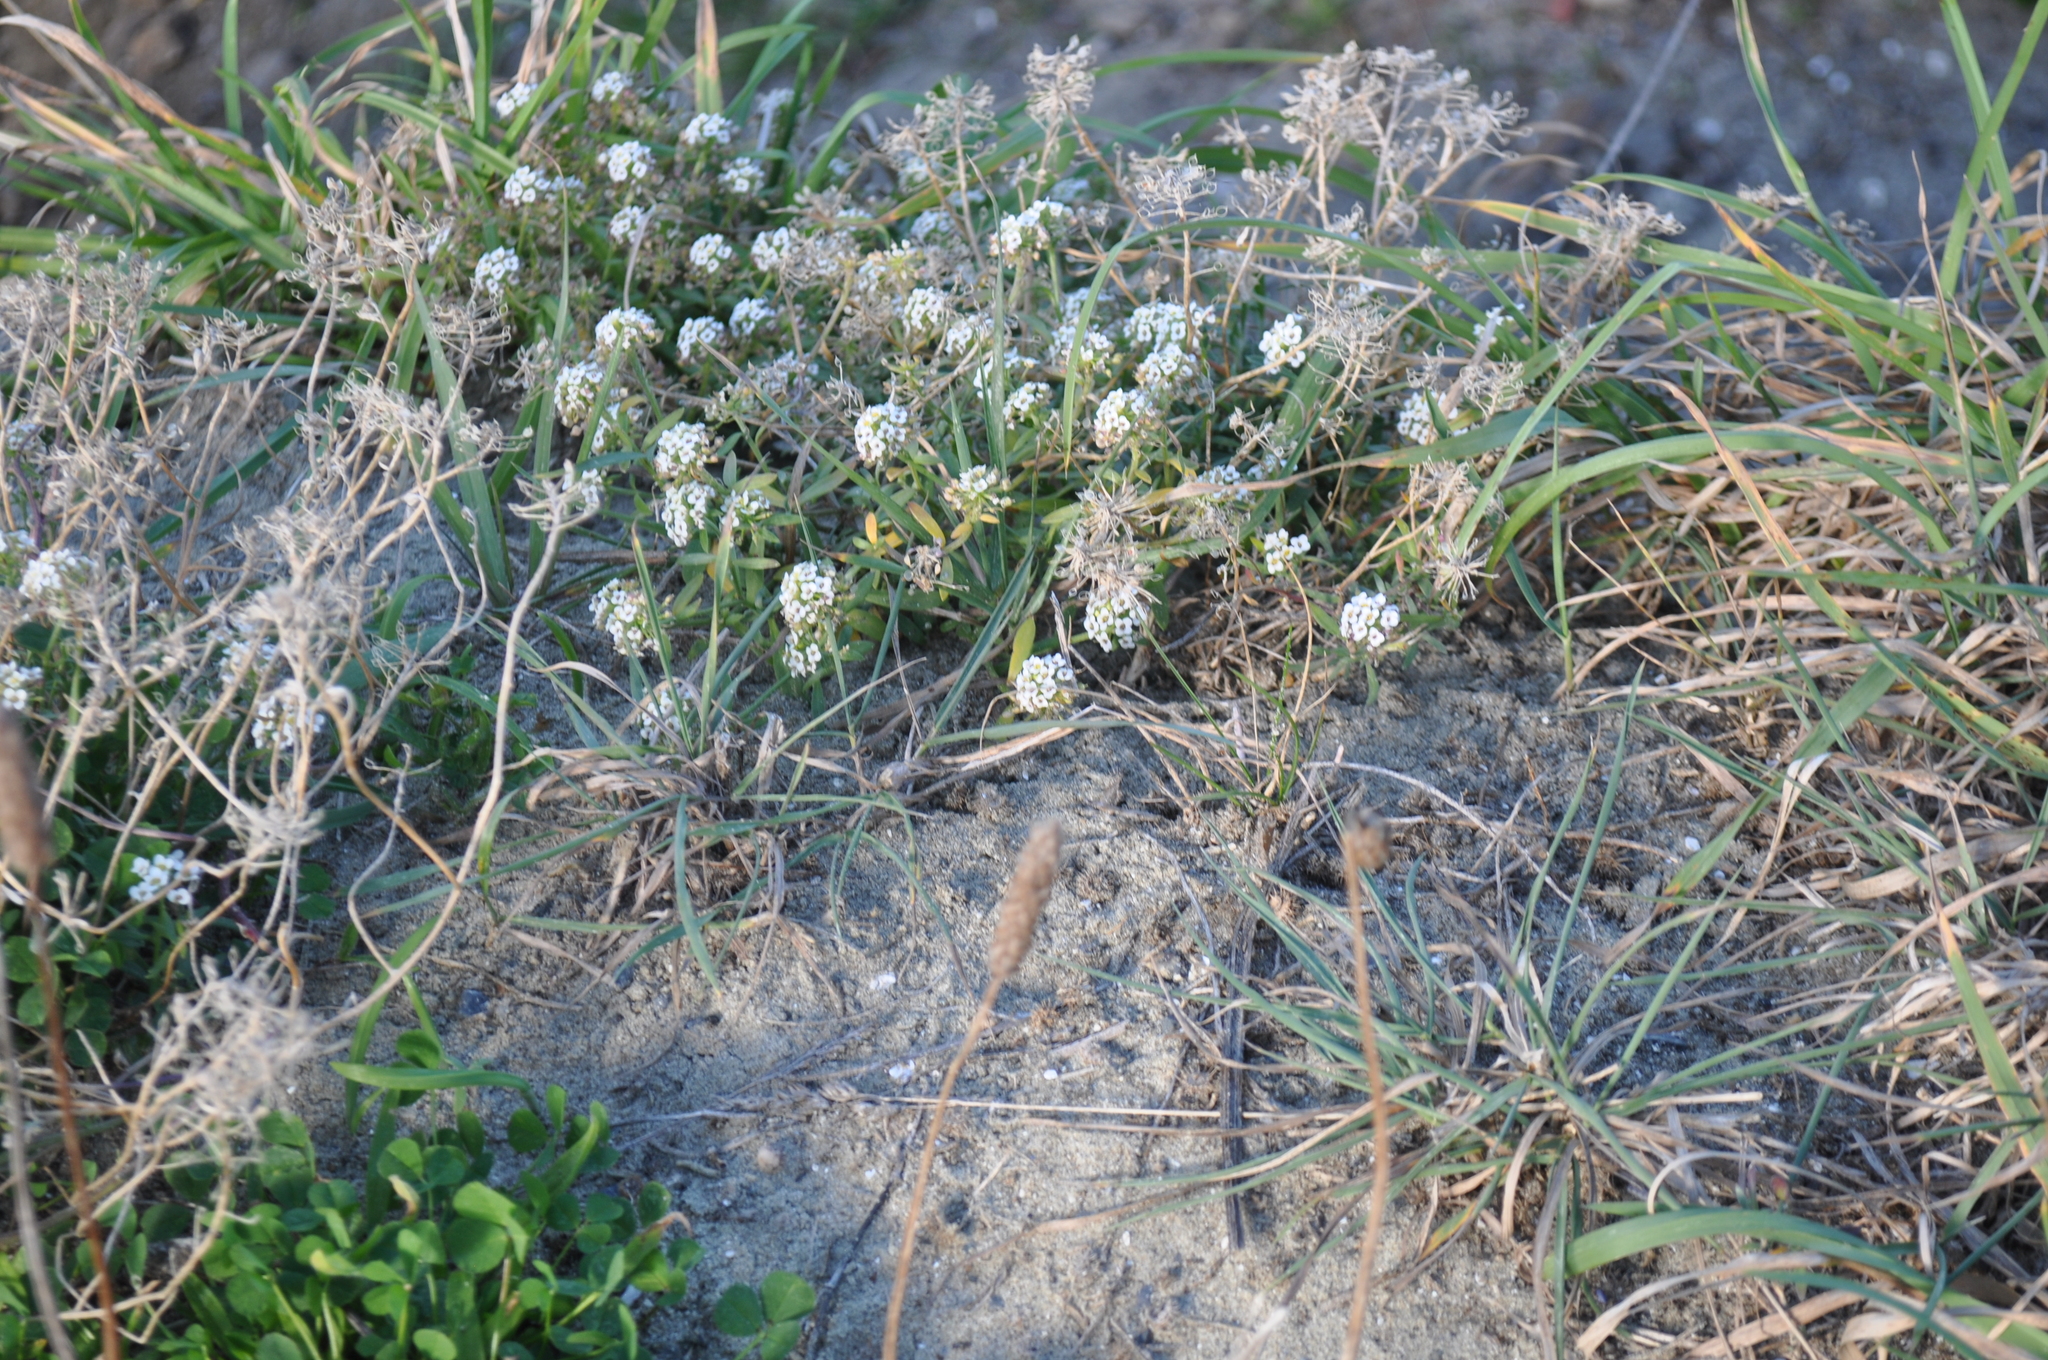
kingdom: Plantae
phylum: Tracheophyta
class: Magnoliopsida
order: Brassicales
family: Brassicaceae
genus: Lobularia
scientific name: Lobularia maritima
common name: Sweet alison
